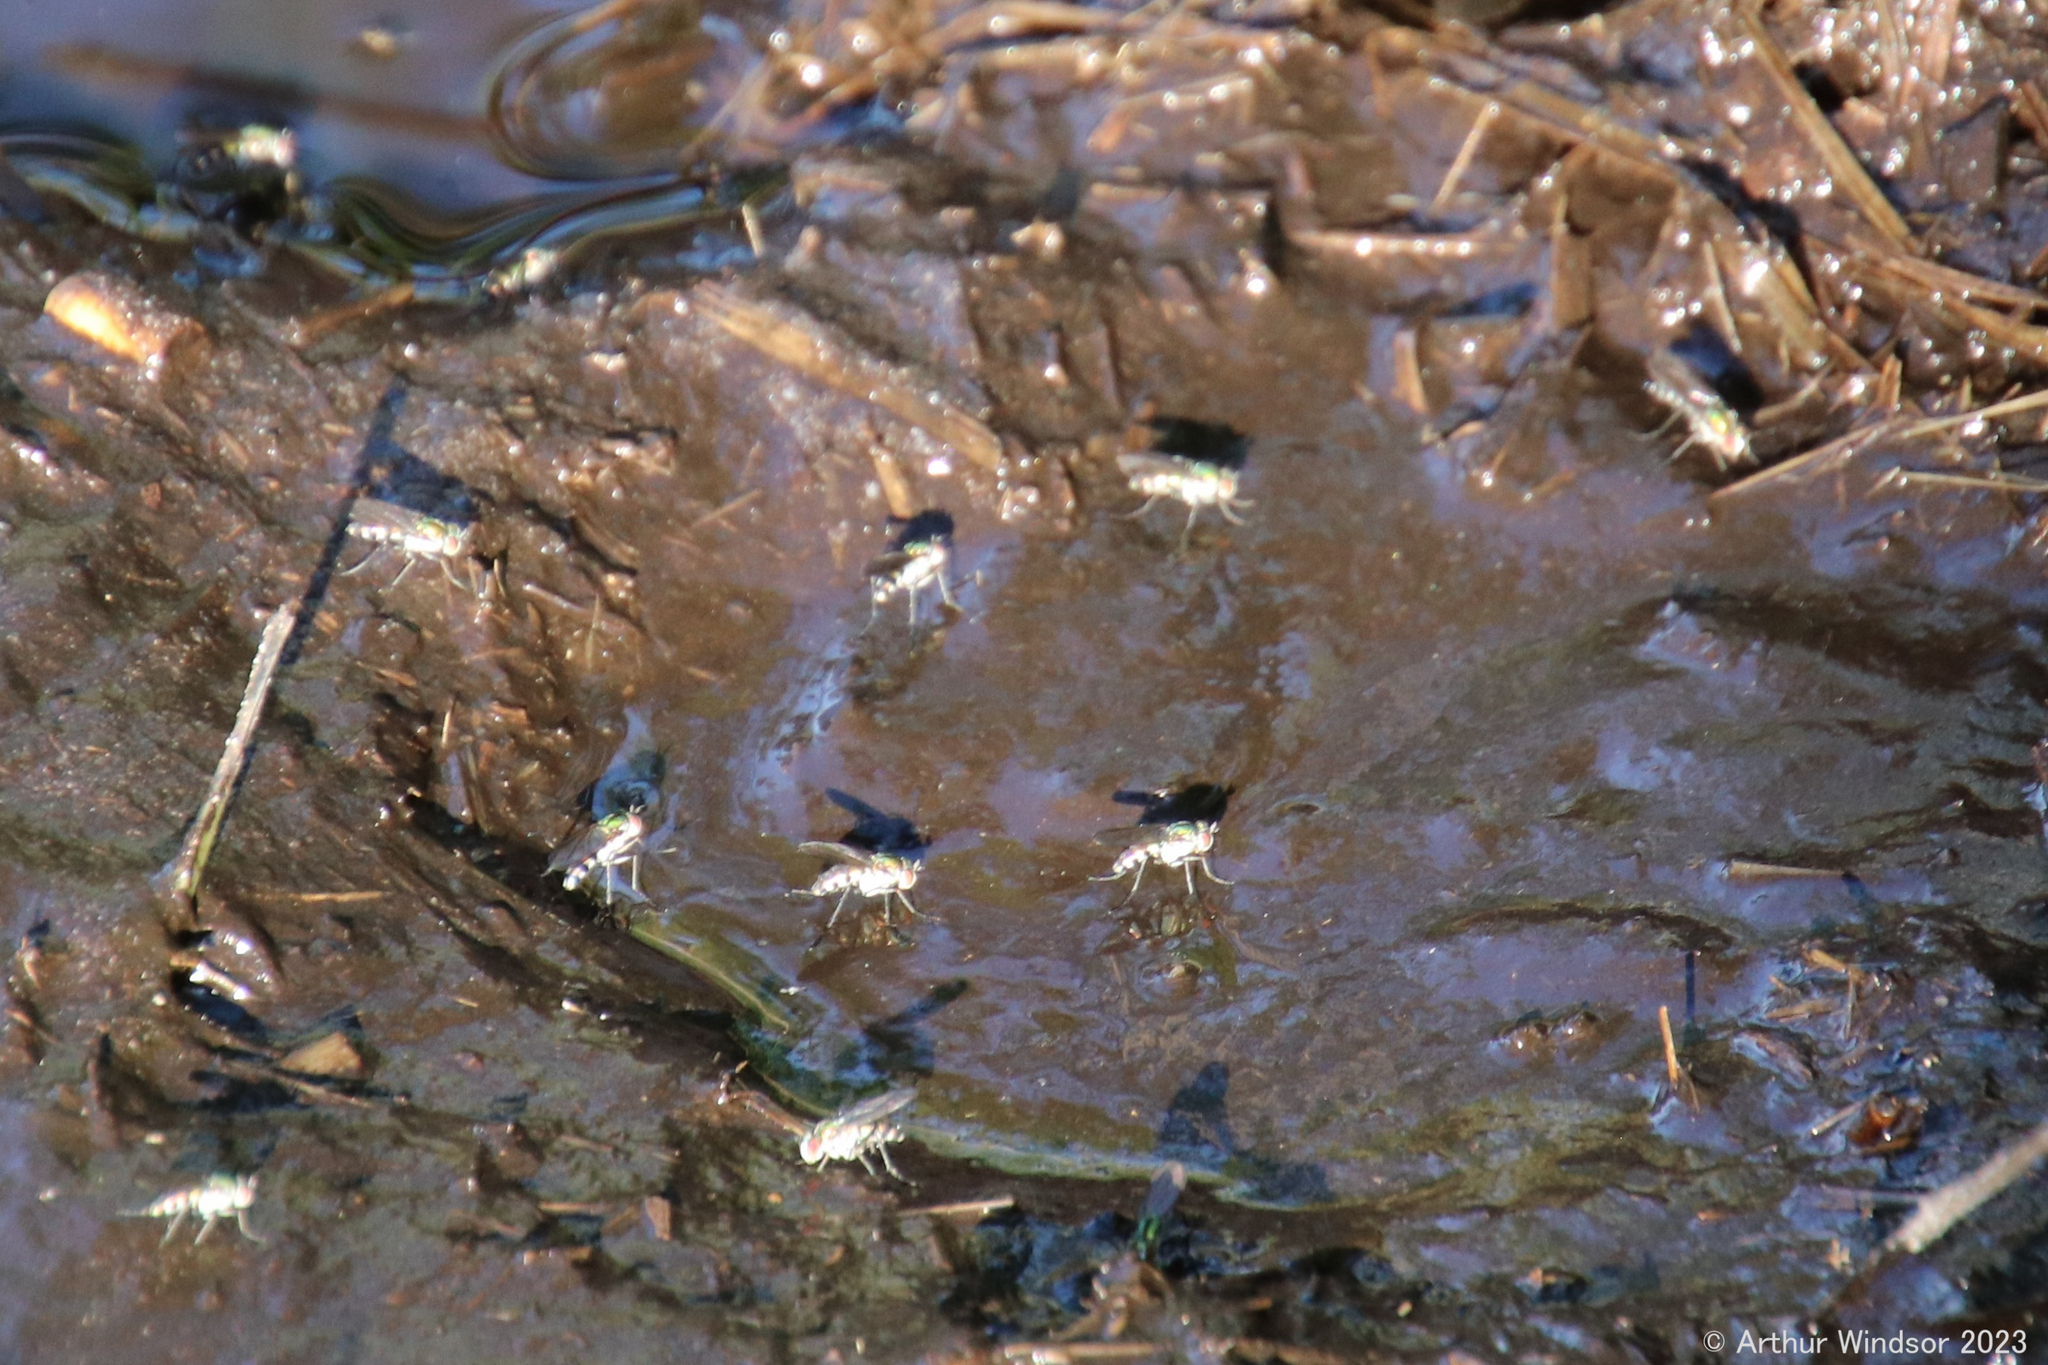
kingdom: Animalia
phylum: Arthropoda
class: Insecta
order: Diptera
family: Dolichopodidae
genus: Plagioneurus
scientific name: Plagioneurus univittatus
